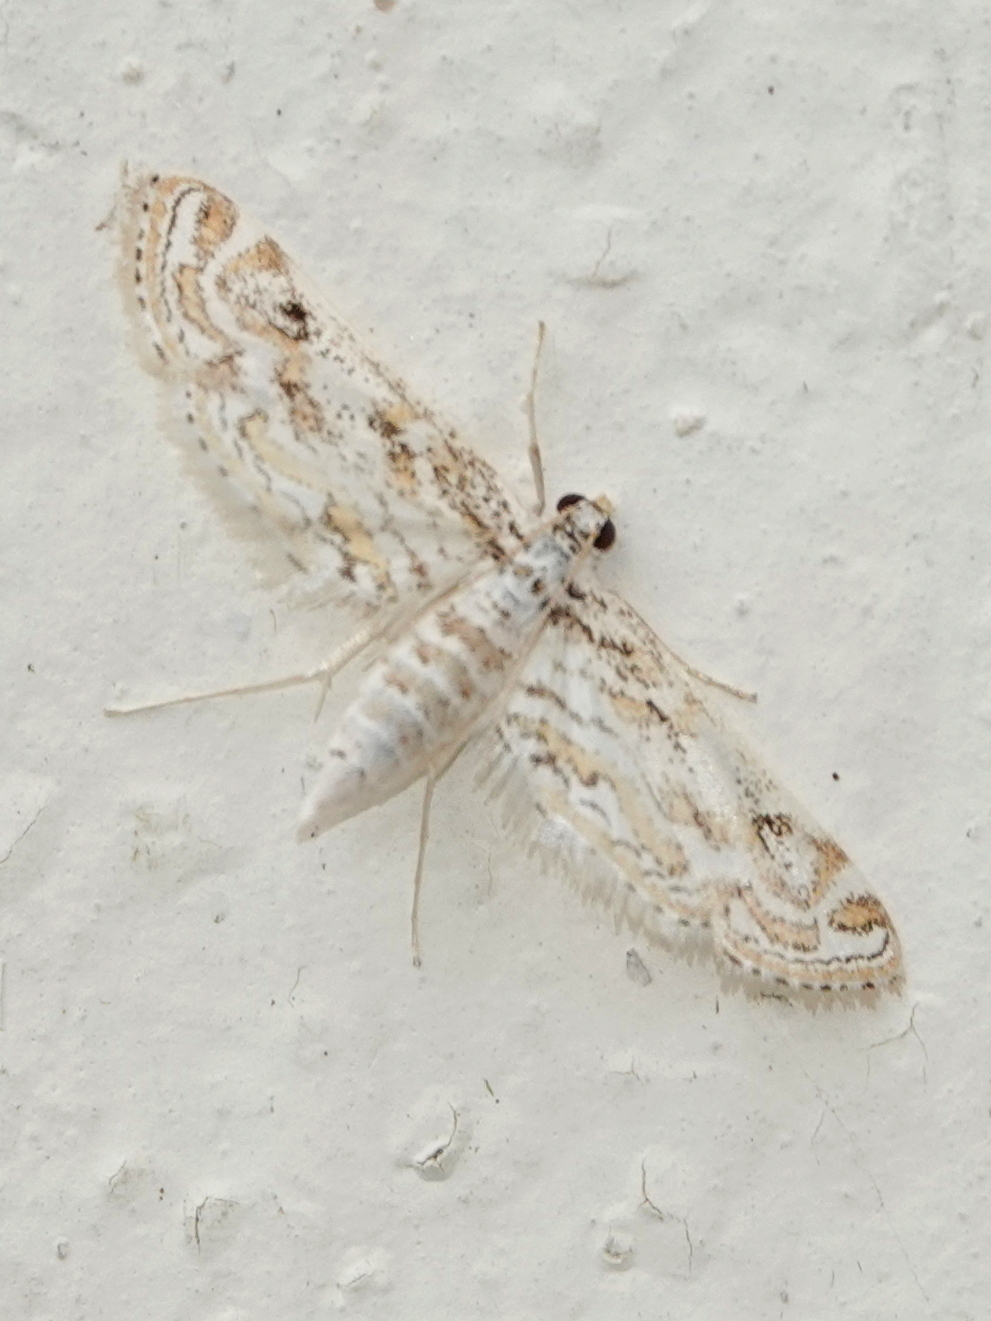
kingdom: Animalia
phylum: Arthropoda
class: Insecta
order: Lepidoptera
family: Crambidae
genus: Parapoynx
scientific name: Parapoynx diminutalis
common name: Hydrilla leafcutter
